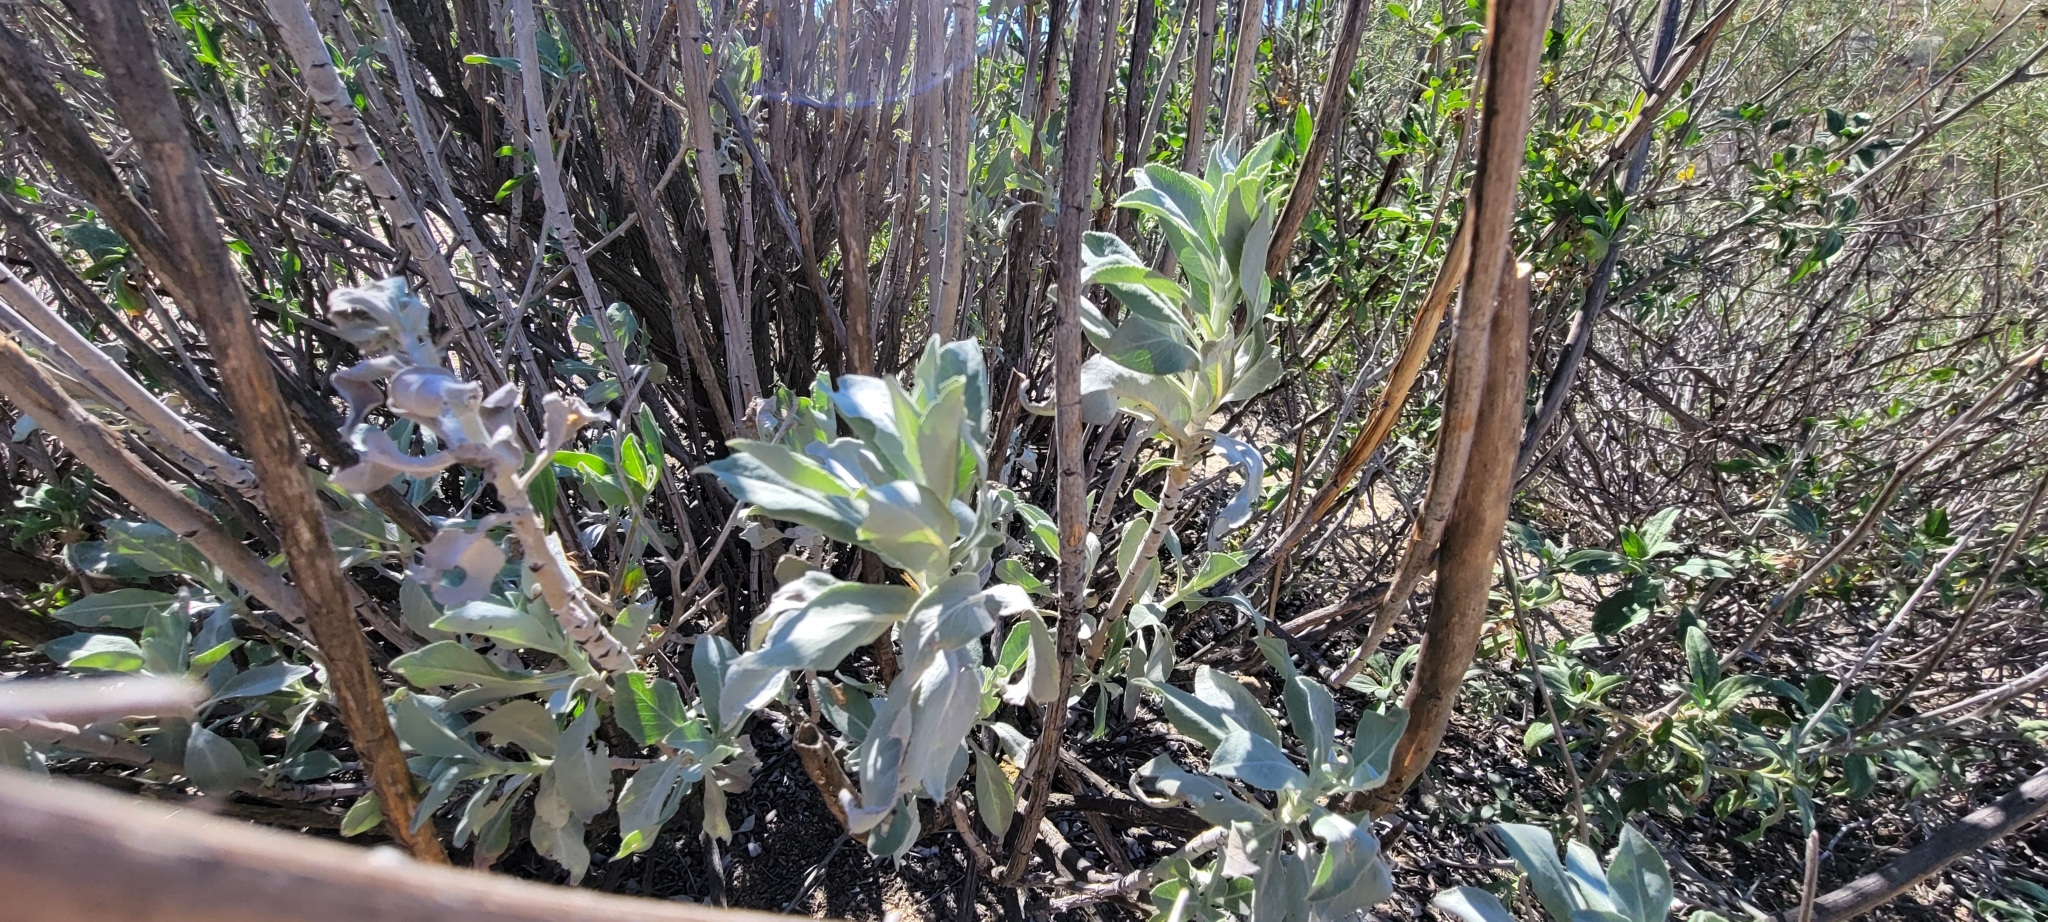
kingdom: Plantae
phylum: Tracheophyta
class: Magnoliopsida
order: Lamiales
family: Lamiaceae
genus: Salvia
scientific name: Salvia apiana
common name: White sage
